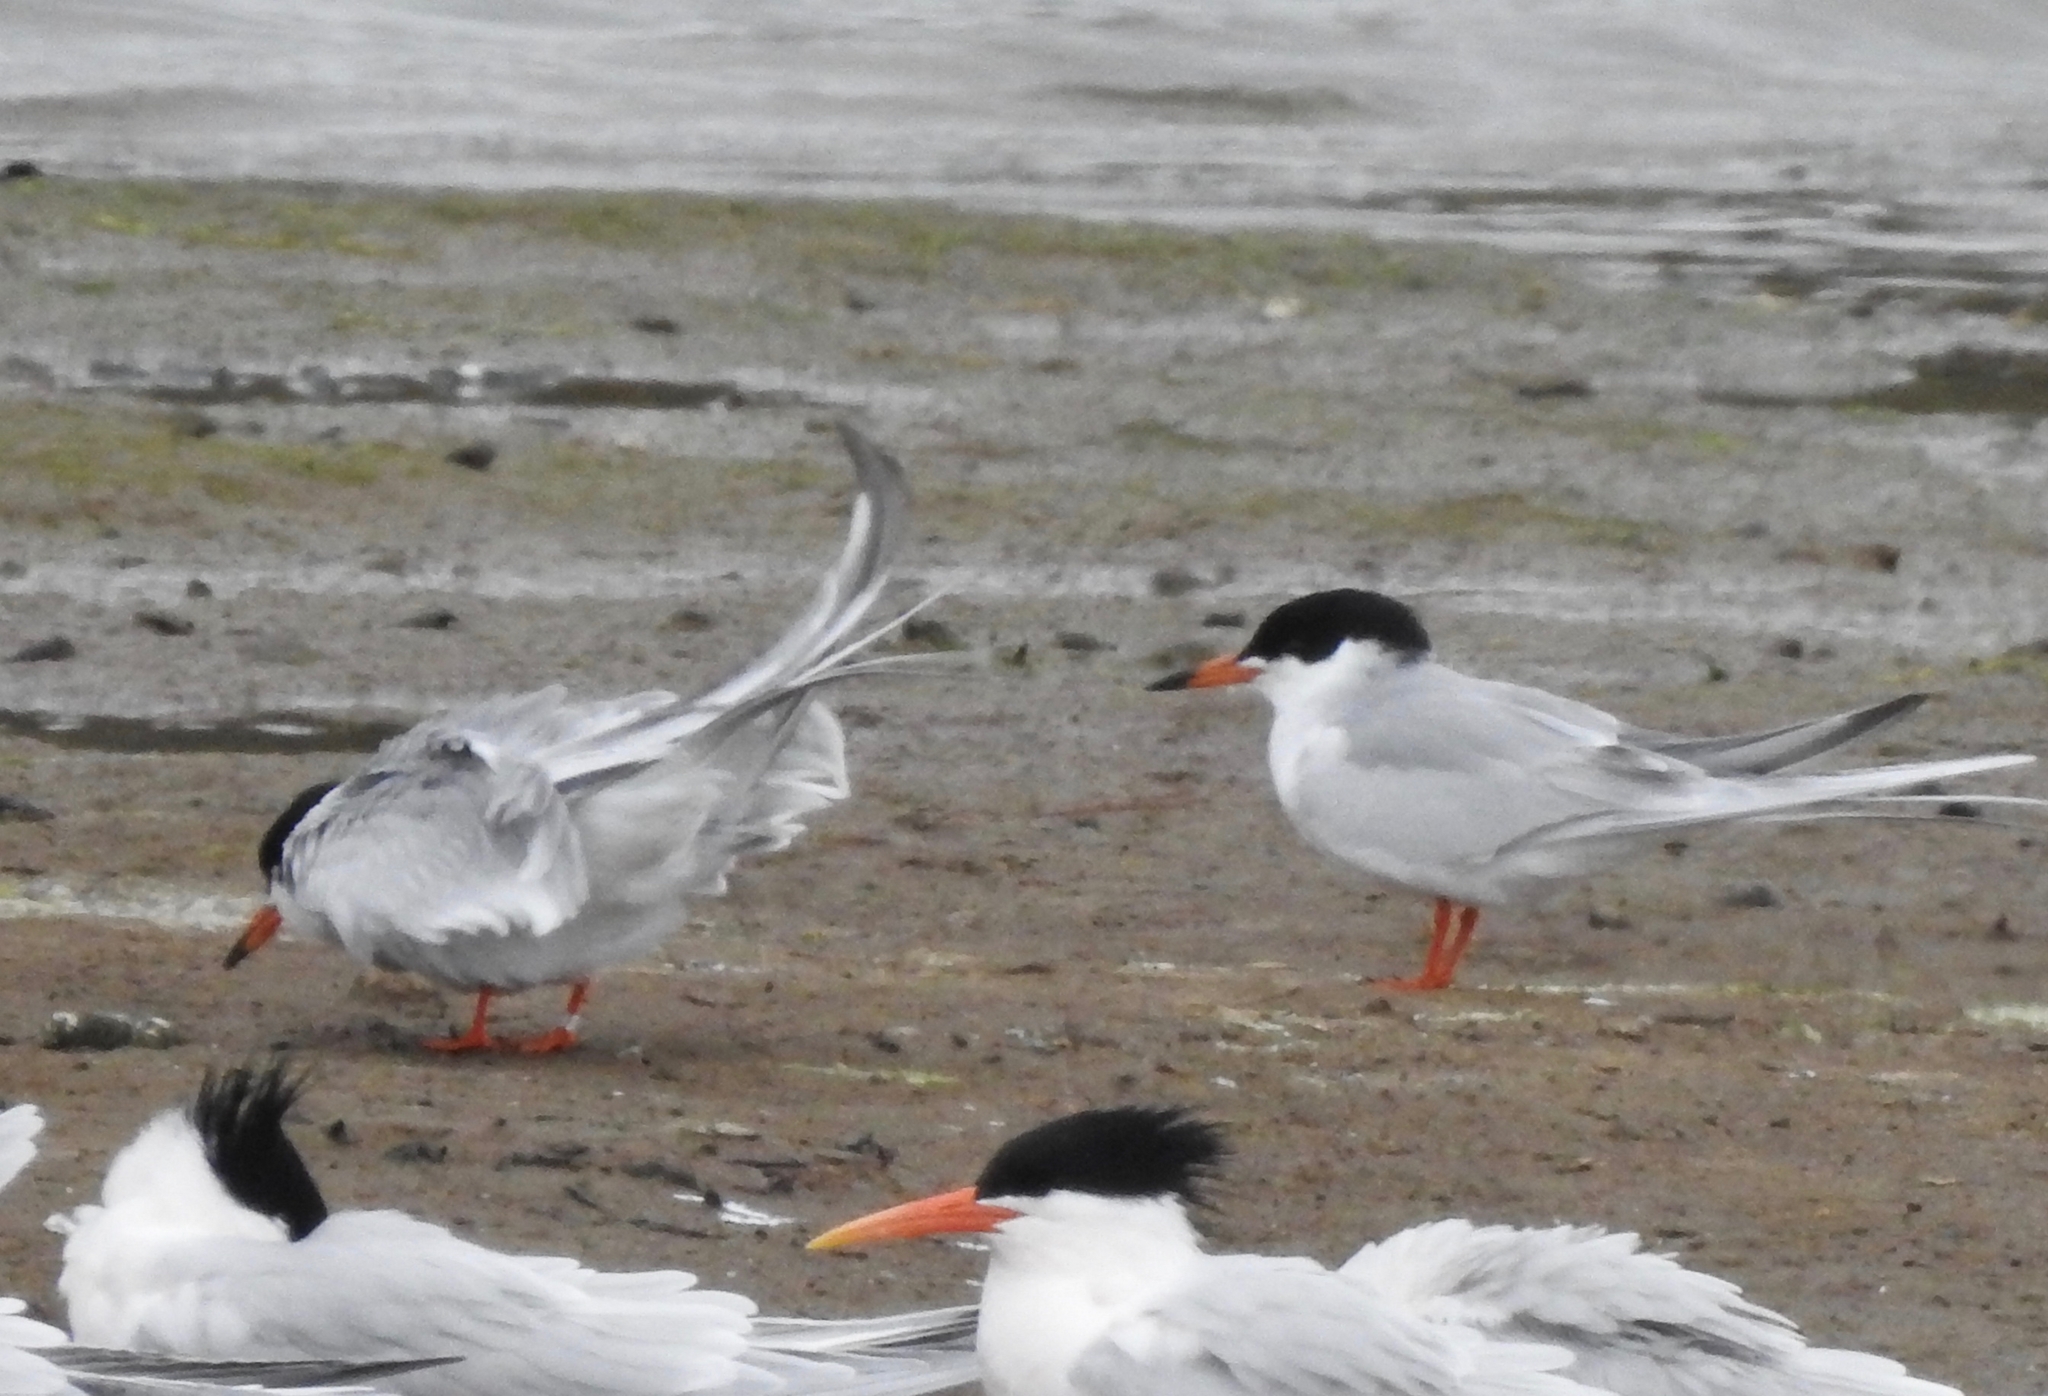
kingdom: Animalia
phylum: Chordata
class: Aves
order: Charadriiformes
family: Laridae
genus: Sterna
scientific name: Sterna forsteri
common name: Forster's tern
